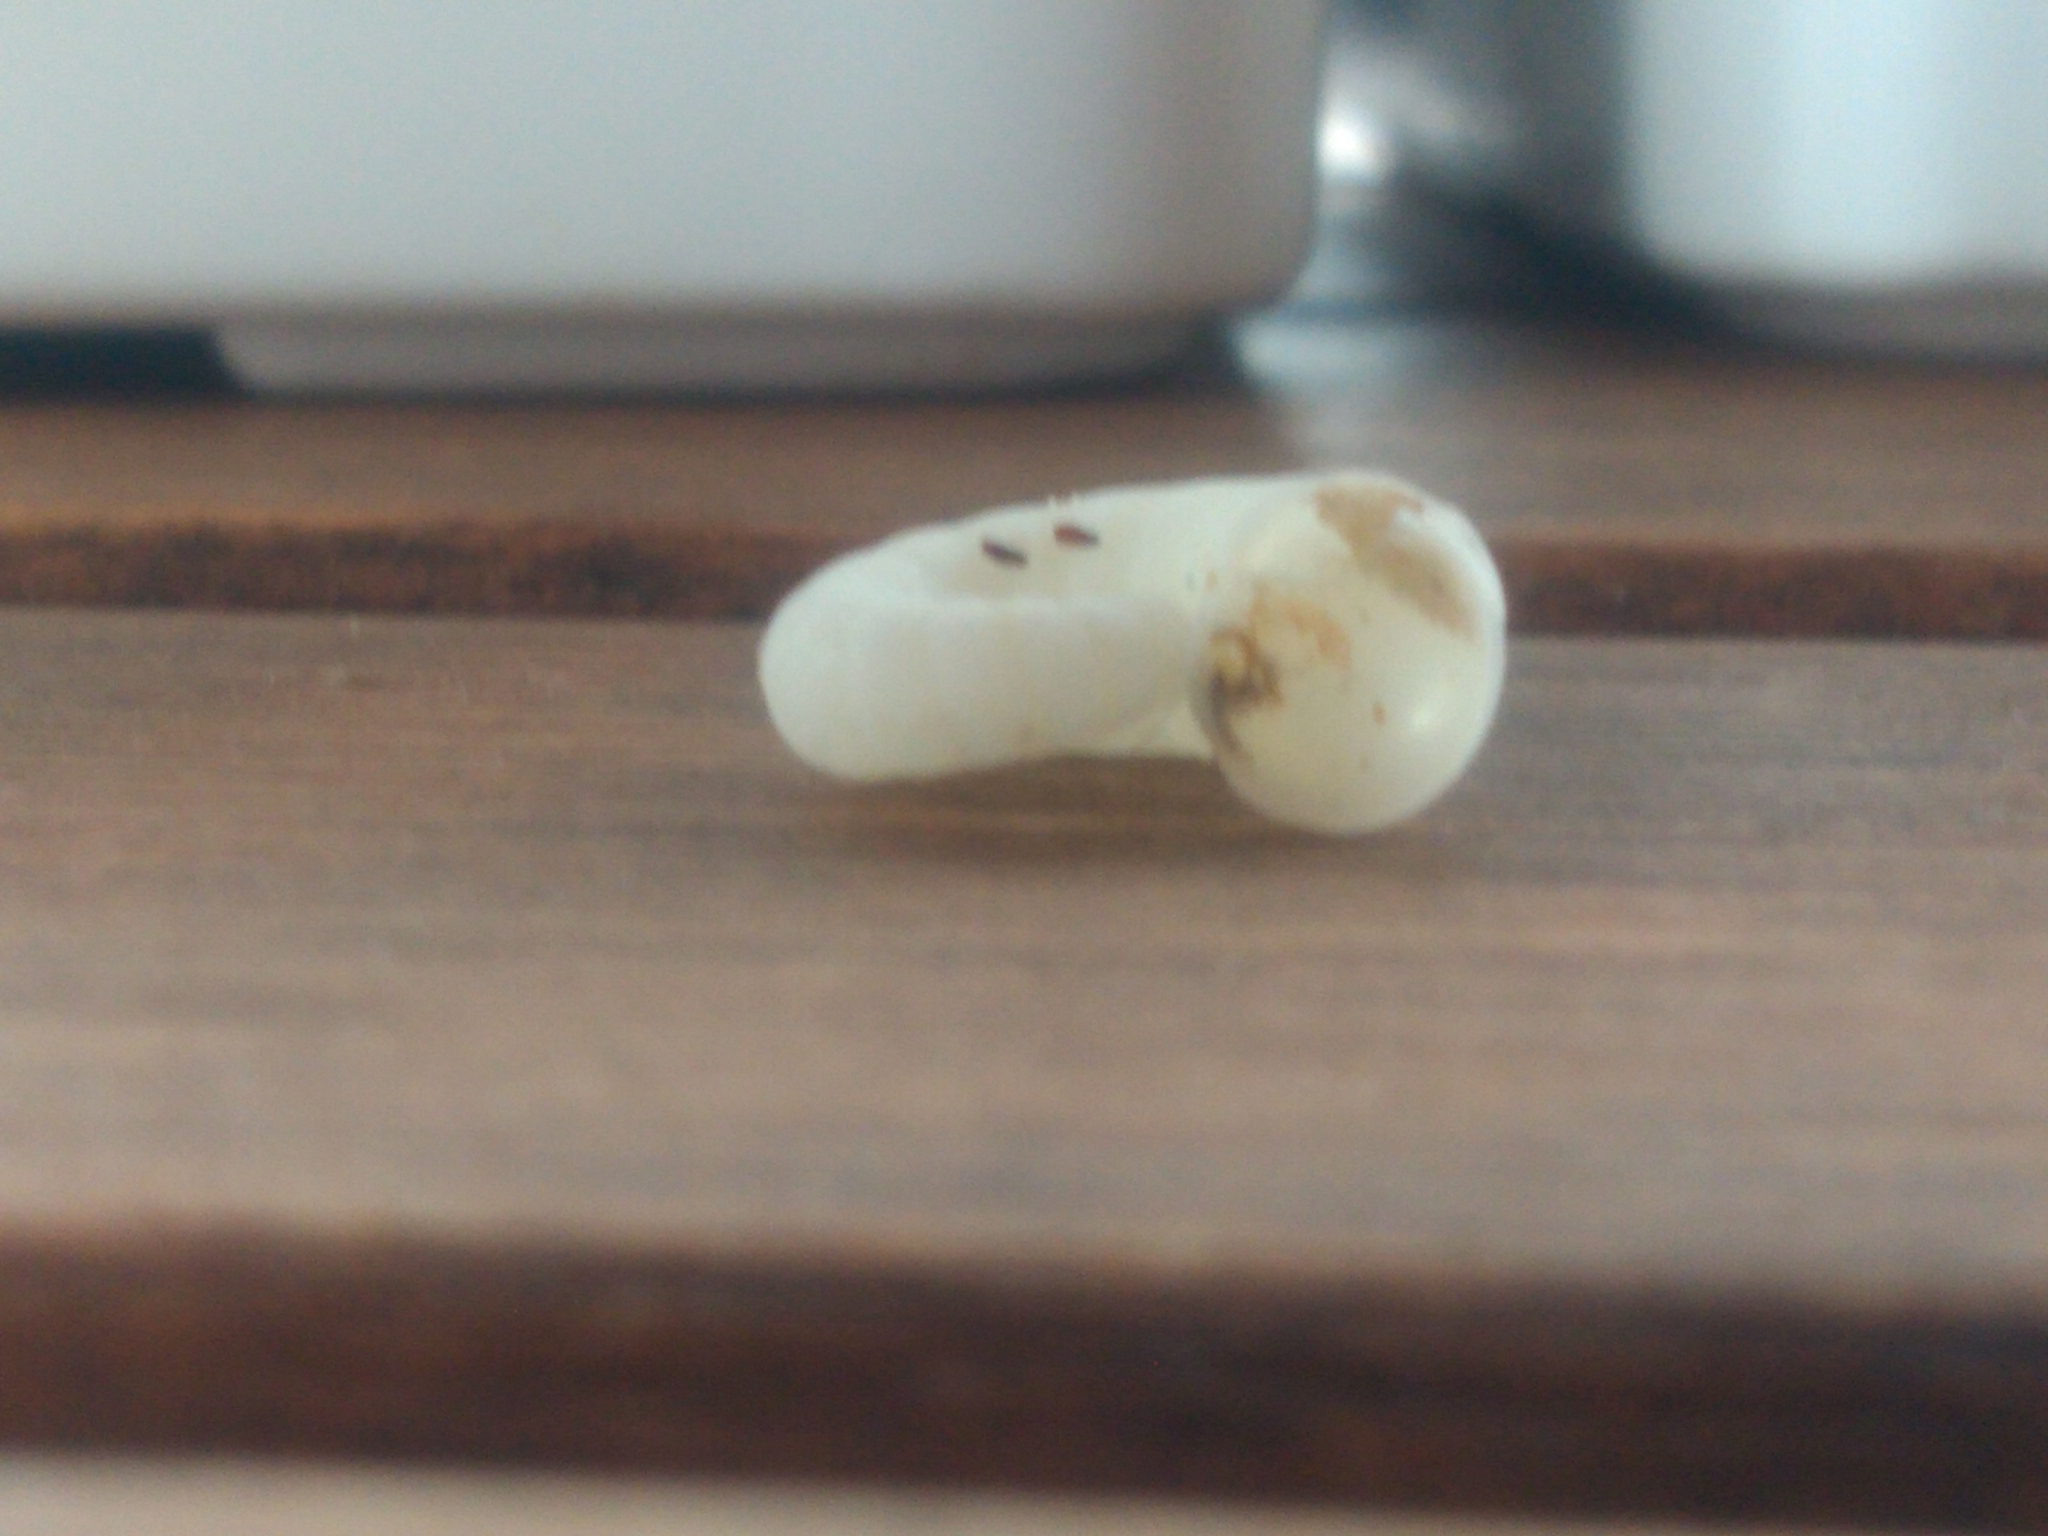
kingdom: Animalia
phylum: Mollusca
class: Cephalopoda
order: Spirulida
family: Spirulidae
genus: Spirula
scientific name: Spirula spirula
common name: Ram's horn squid
